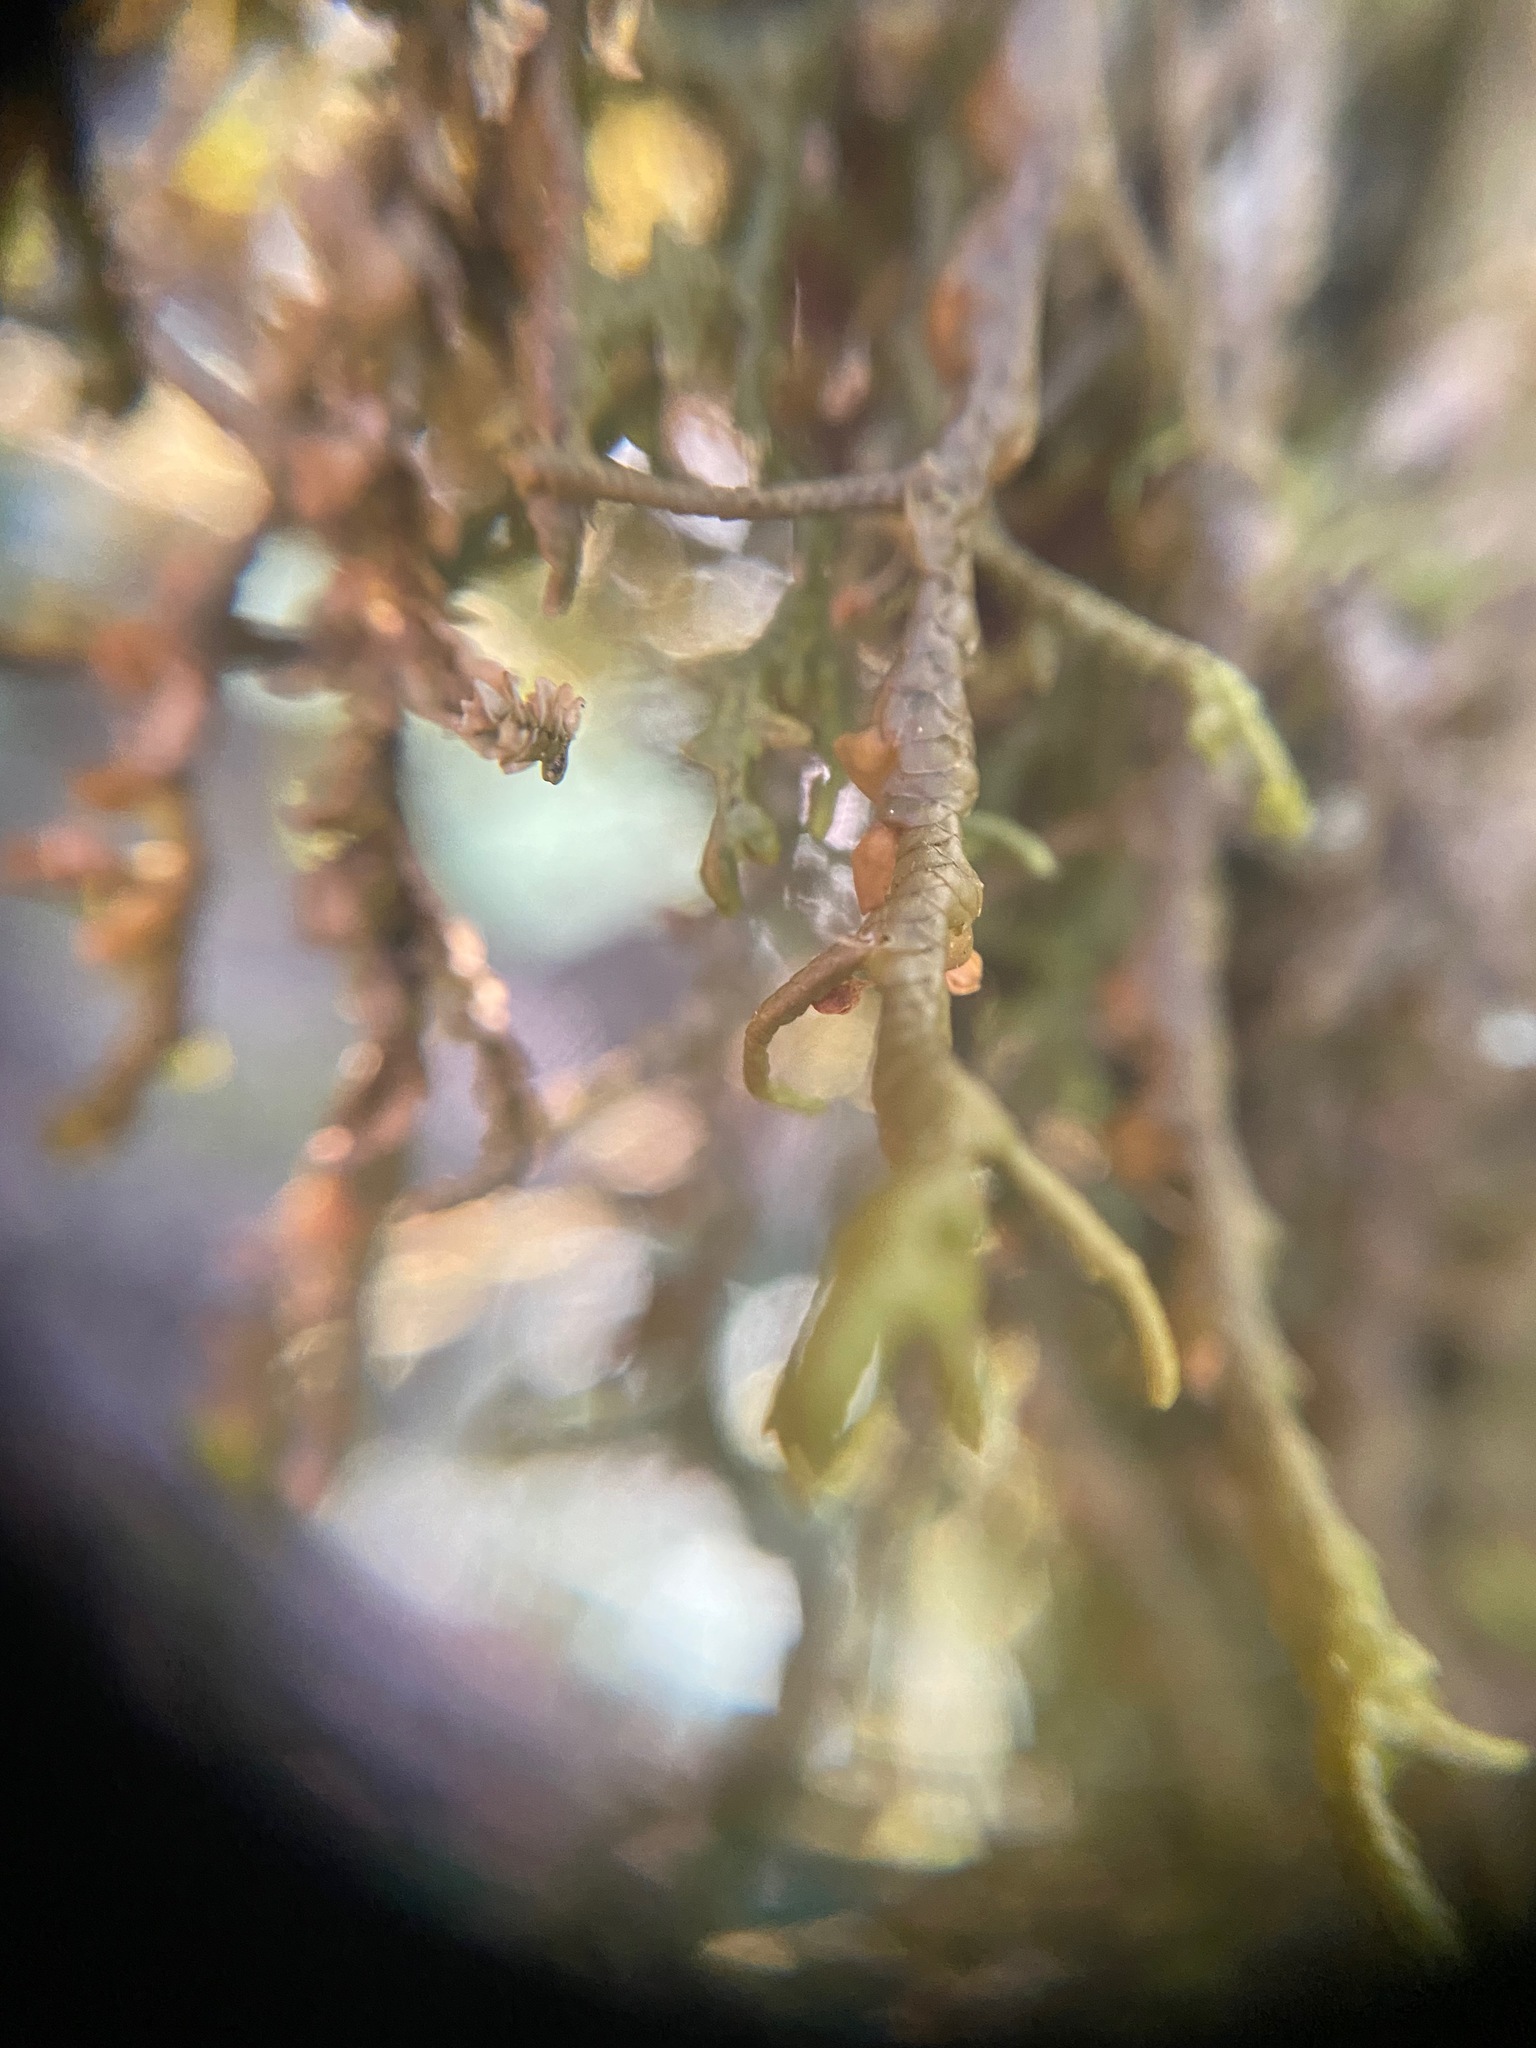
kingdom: Plantae
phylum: Marchantiophyta
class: Jungermanniopsida
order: Porellales
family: Porellaceae
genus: Porella
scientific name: Porella navicularis
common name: Tree ruffle liverwort
